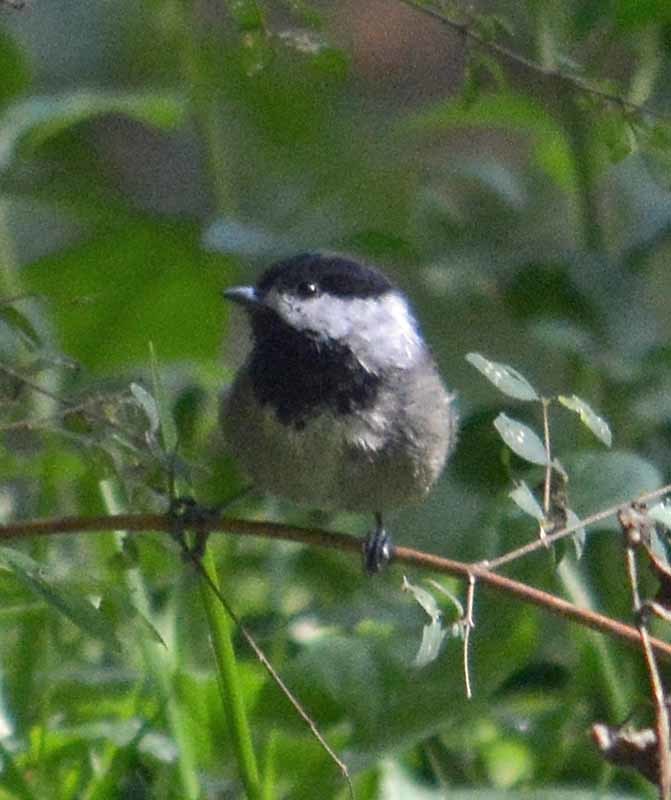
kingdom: Animalia
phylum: Chordata
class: Aves
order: Passeriformes
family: Paridae
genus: Poecile
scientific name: Poecile sclateri
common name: Mexican chickadee
